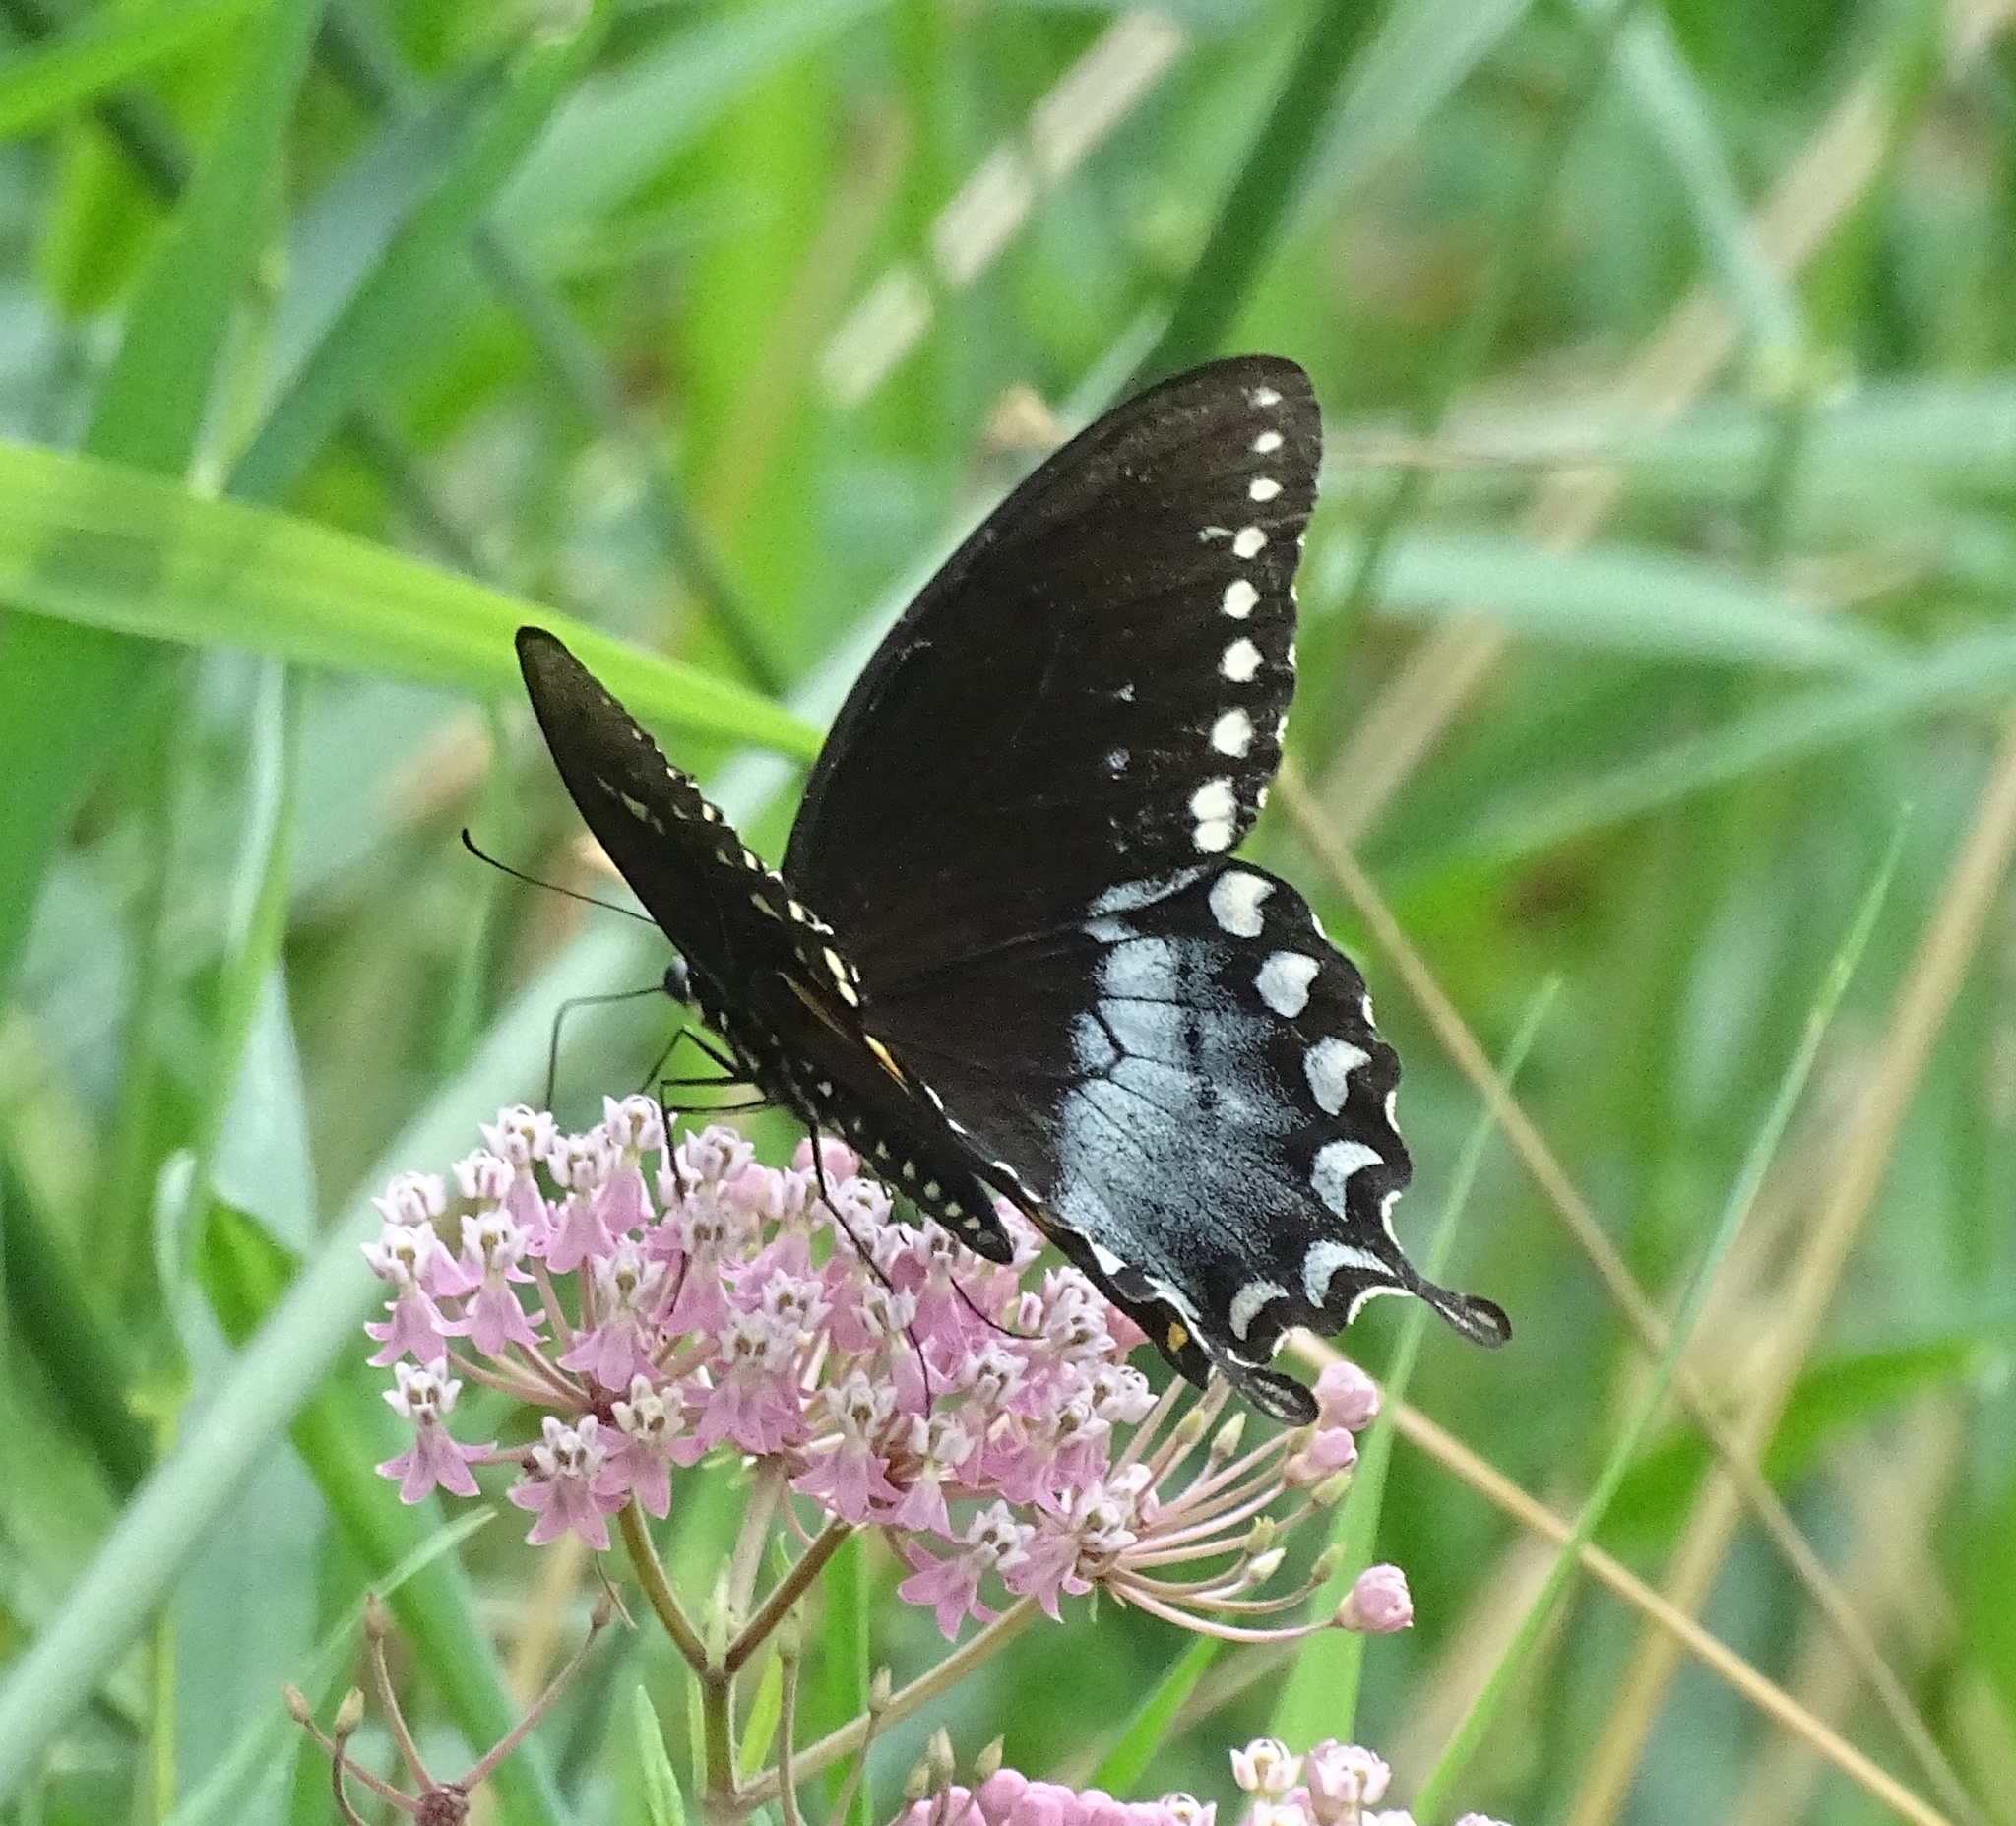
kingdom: Animalia
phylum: Arthropoda
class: Insecta
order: Lepidoptera
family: Papilionidae
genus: Papilio
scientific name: Papilio troilus
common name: Spicebush swallowtail
